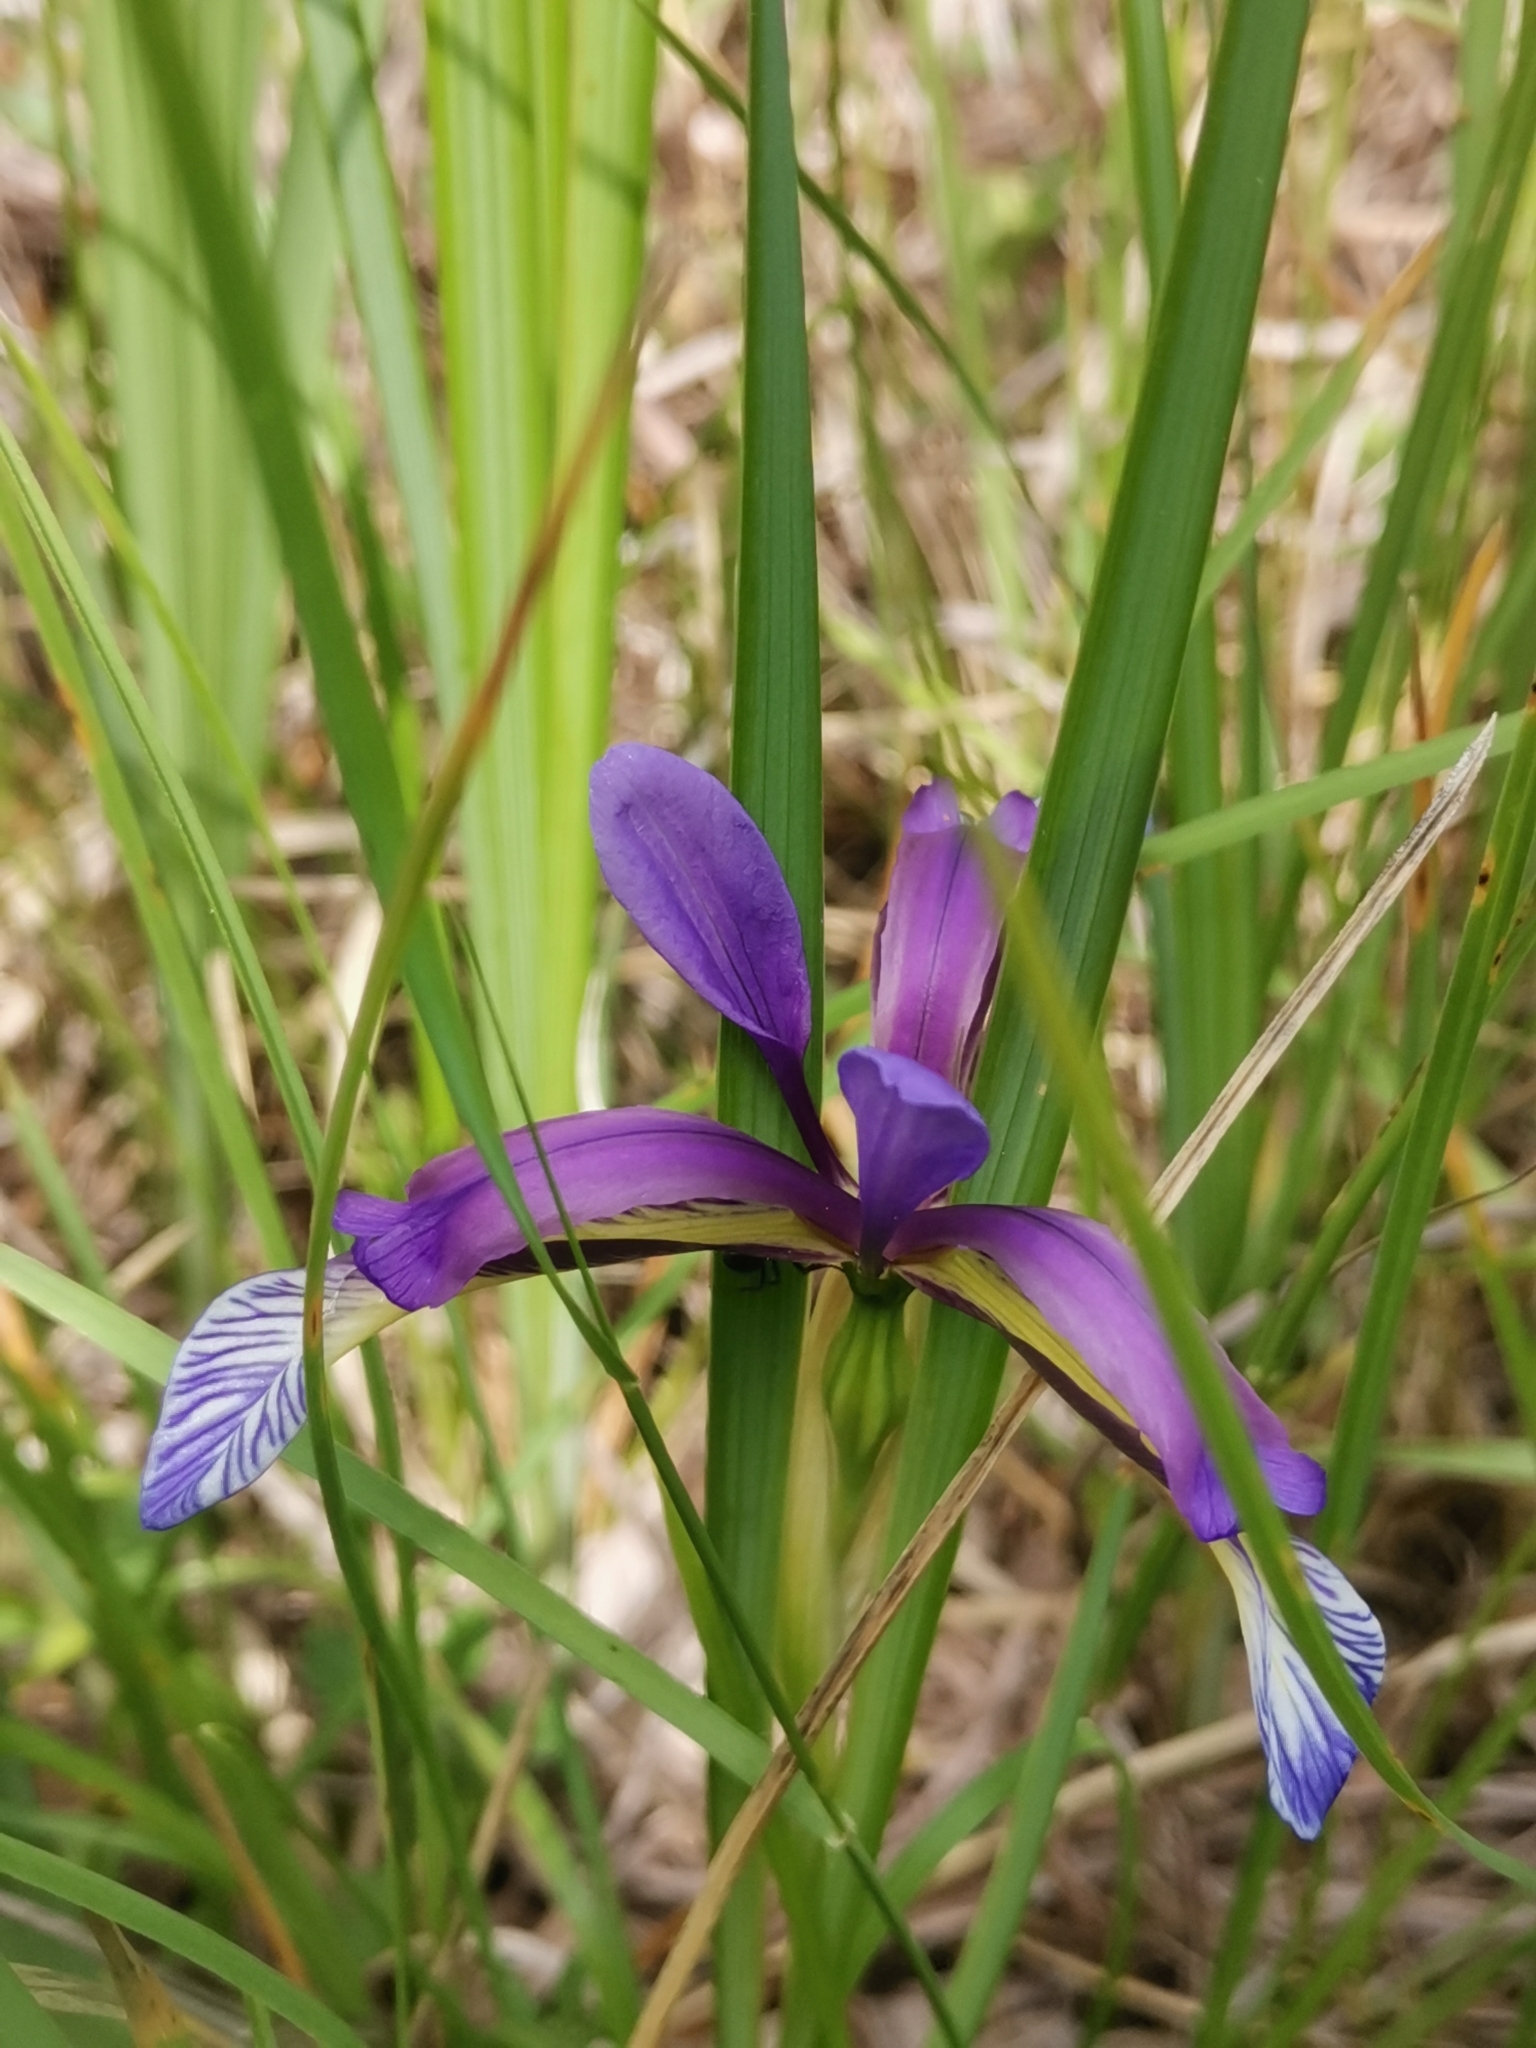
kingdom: Plantae
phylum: Tracheophyta
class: Liliopsida
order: Asparagales
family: Iridaceae
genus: Iris
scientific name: Iris graminea
